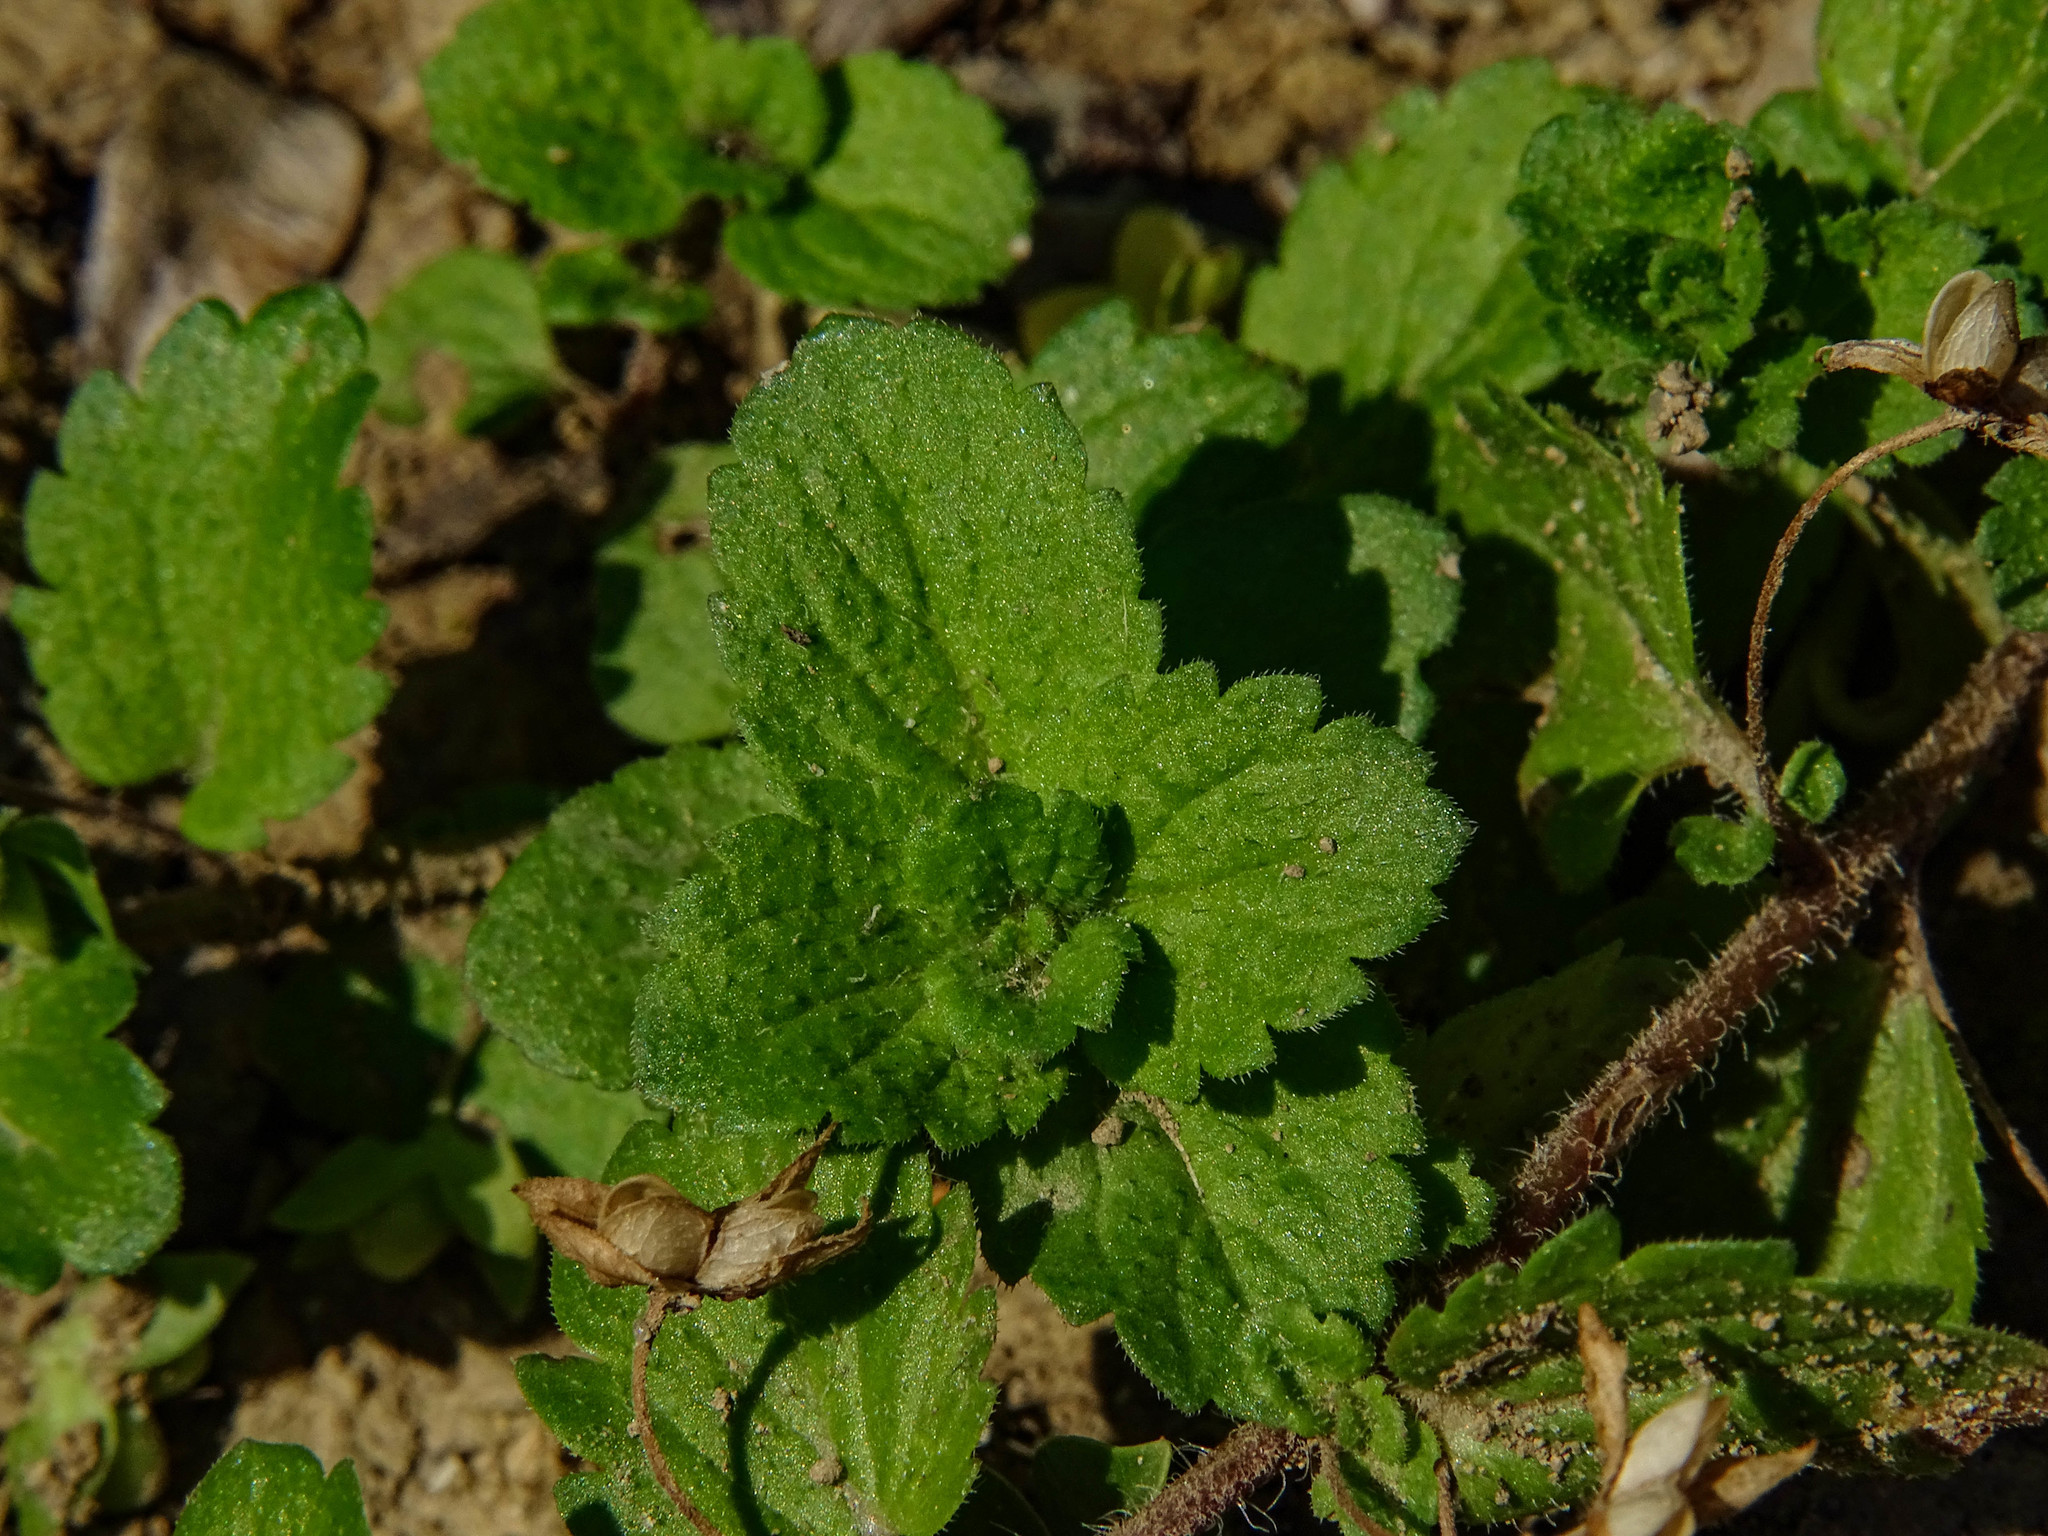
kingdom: Plantae
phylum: Tracheophyta
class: Magnoliopsida
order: Lamiales
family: Plantaginaceae
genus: Veronica
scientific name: Veronica persica
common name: Common field-speedwell
